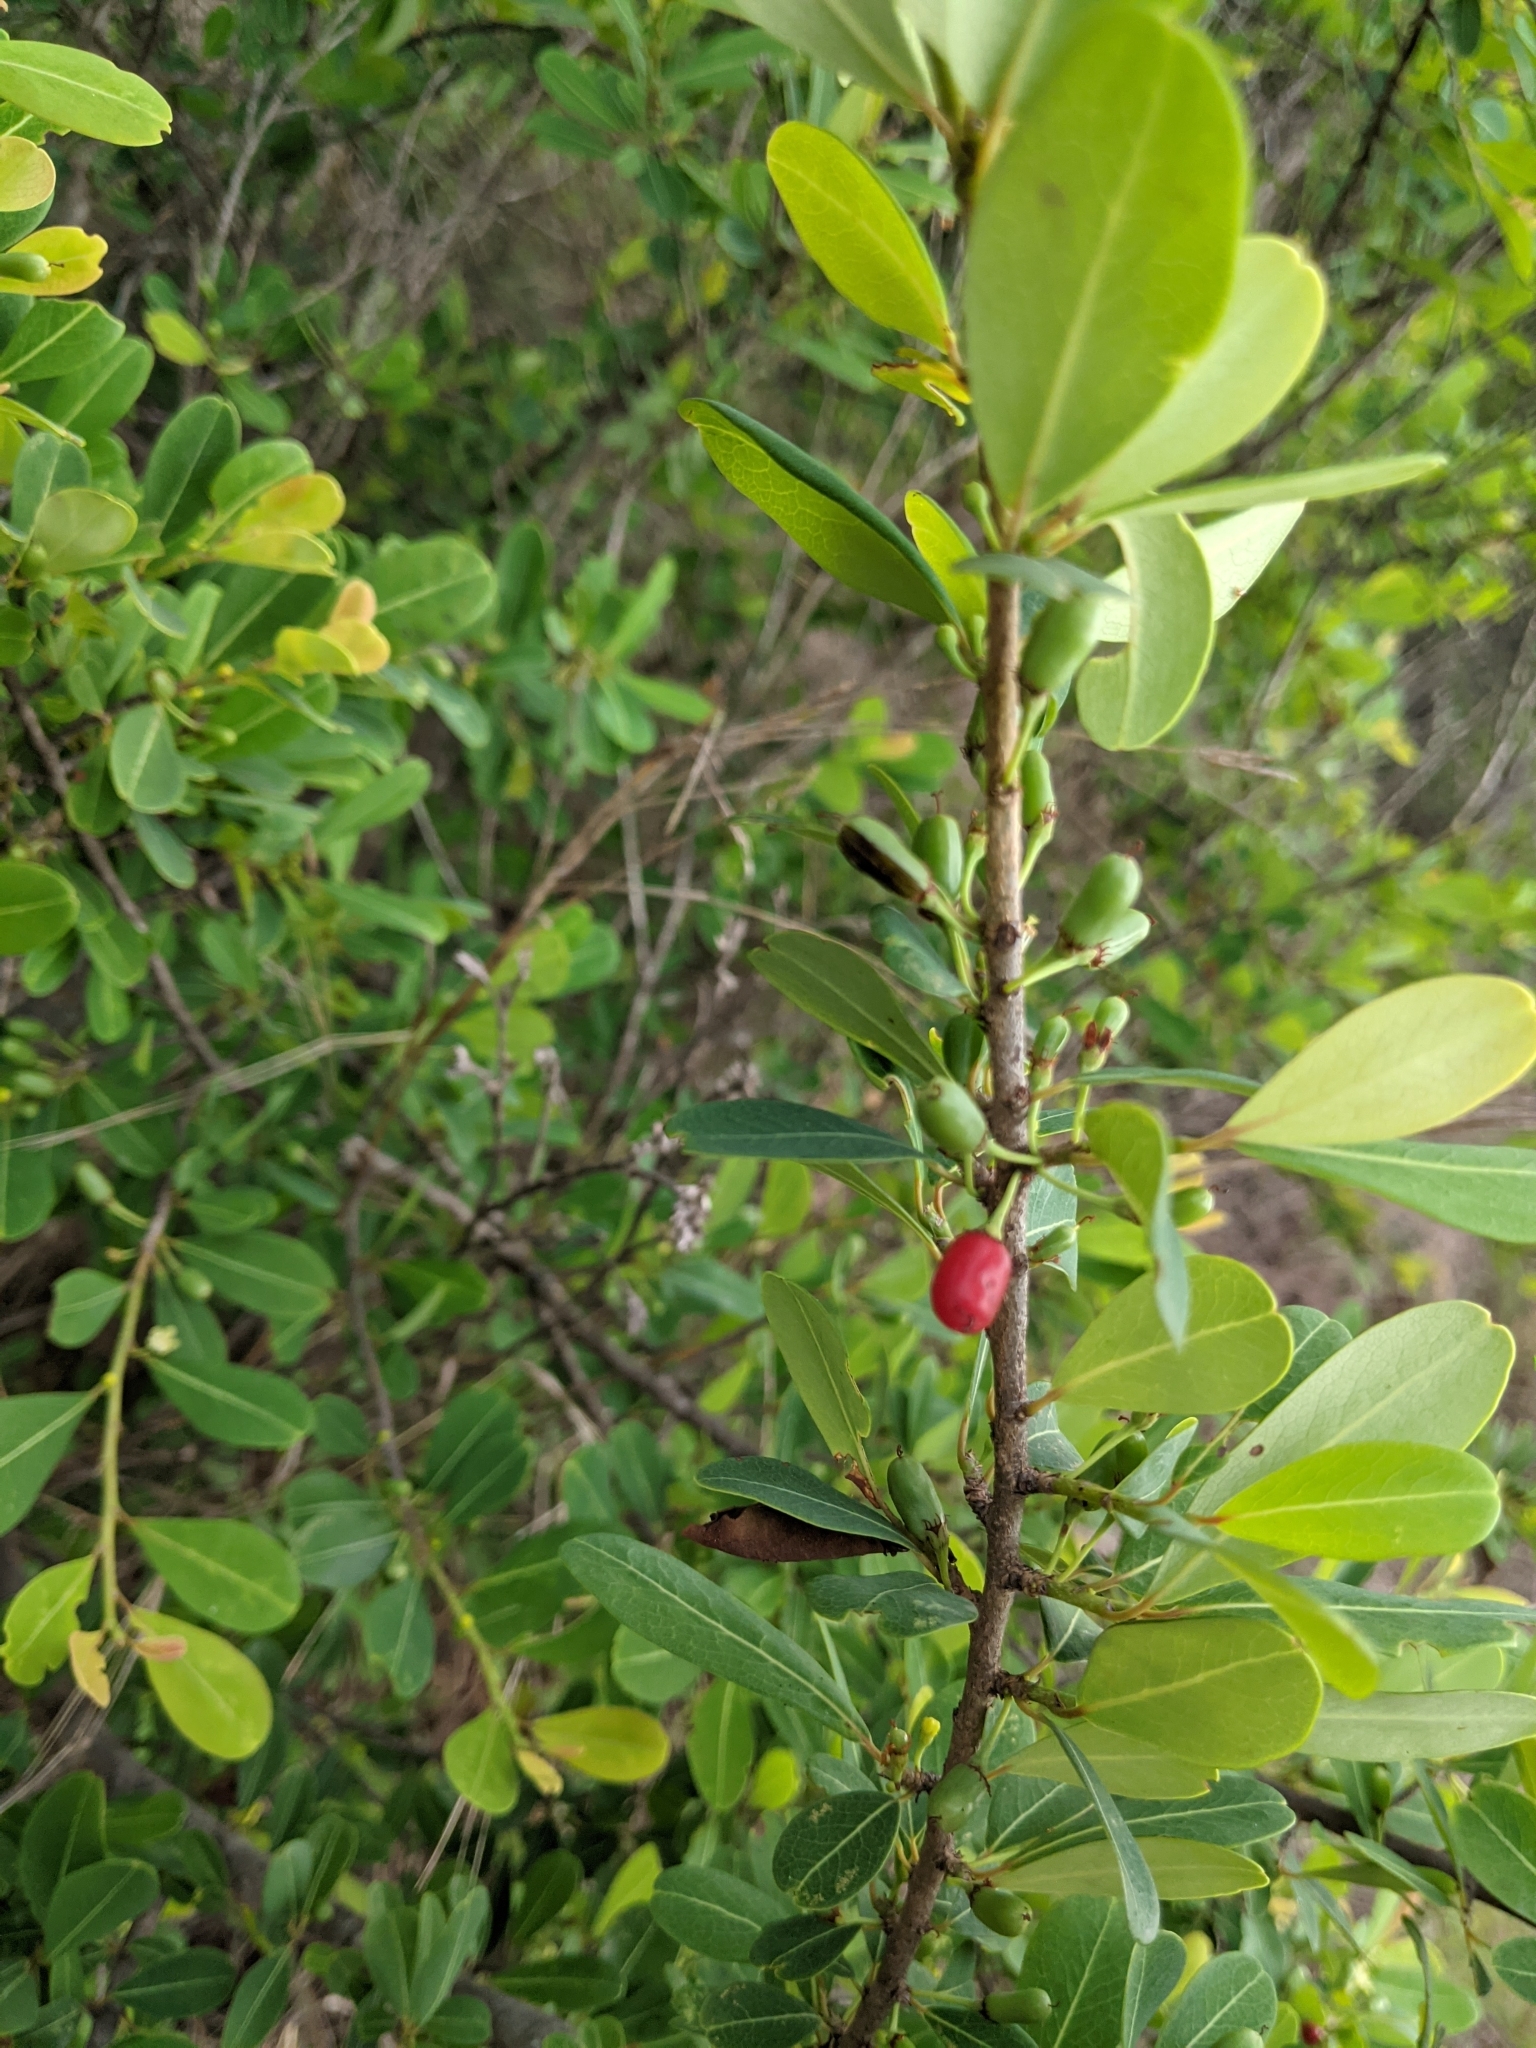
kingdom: Plantae
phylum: Tracheophyta
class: Magnoliopsida
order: Malpighiales
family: Erythroxylaceae
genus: Erythroxylum
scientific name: Erythroxylum monogynum
